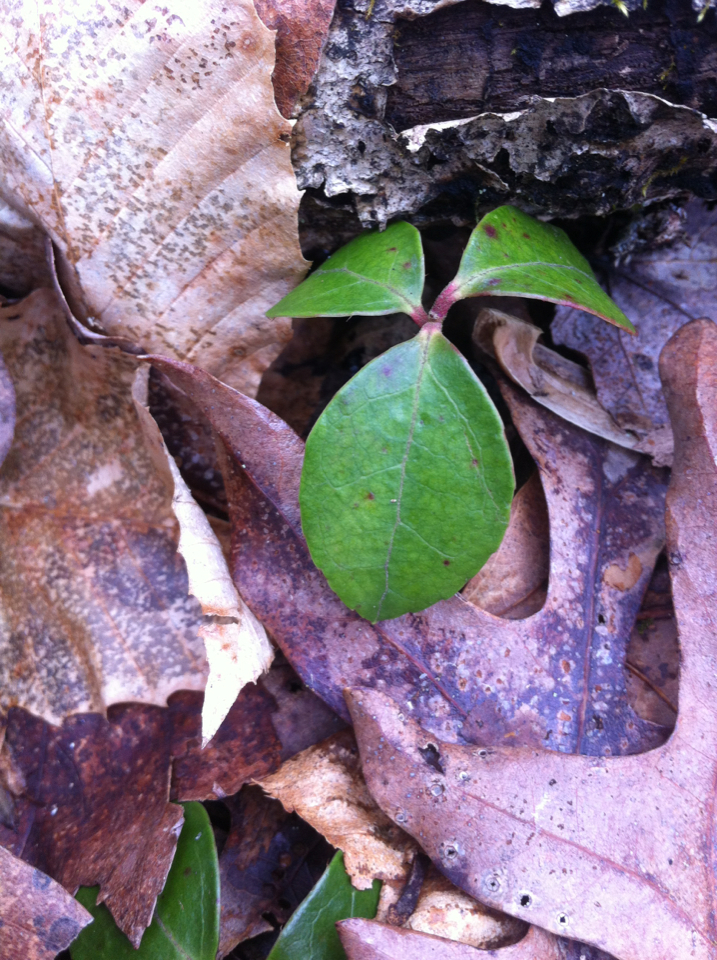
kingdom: Plantae
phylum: Tracheophyta
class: Magnoliopsida
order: Ericales
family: Ericaceae
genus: Gaultheria
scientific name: Gaultheria procumbens
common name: Checkerberry
